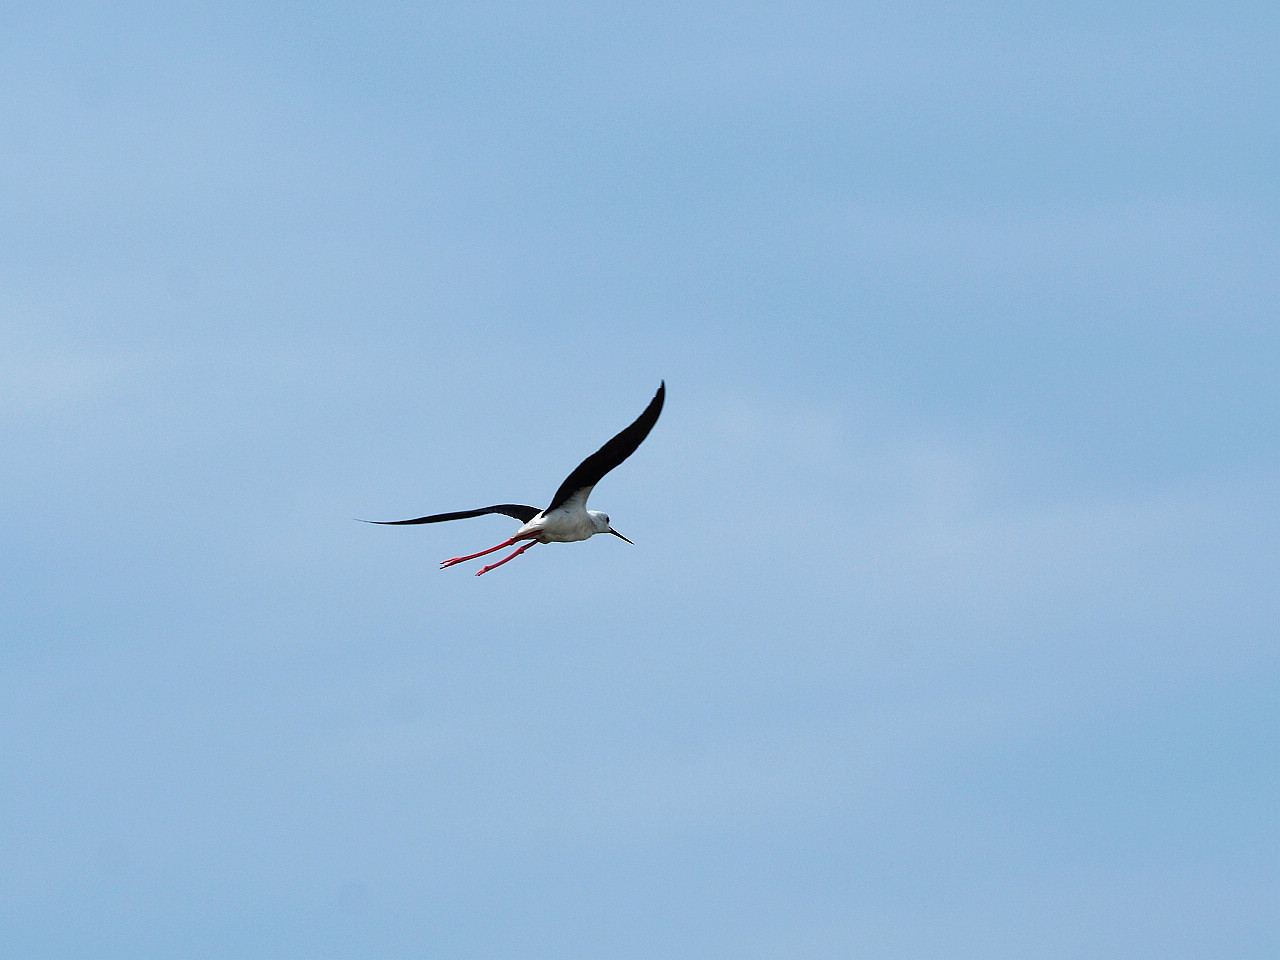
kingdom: Animalia
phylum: Chordata
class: Aves
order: Charadriiformes
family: Recurvirostridae
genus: Himantopus
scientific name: Himantopus himantopus
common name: Black-winged stilt
